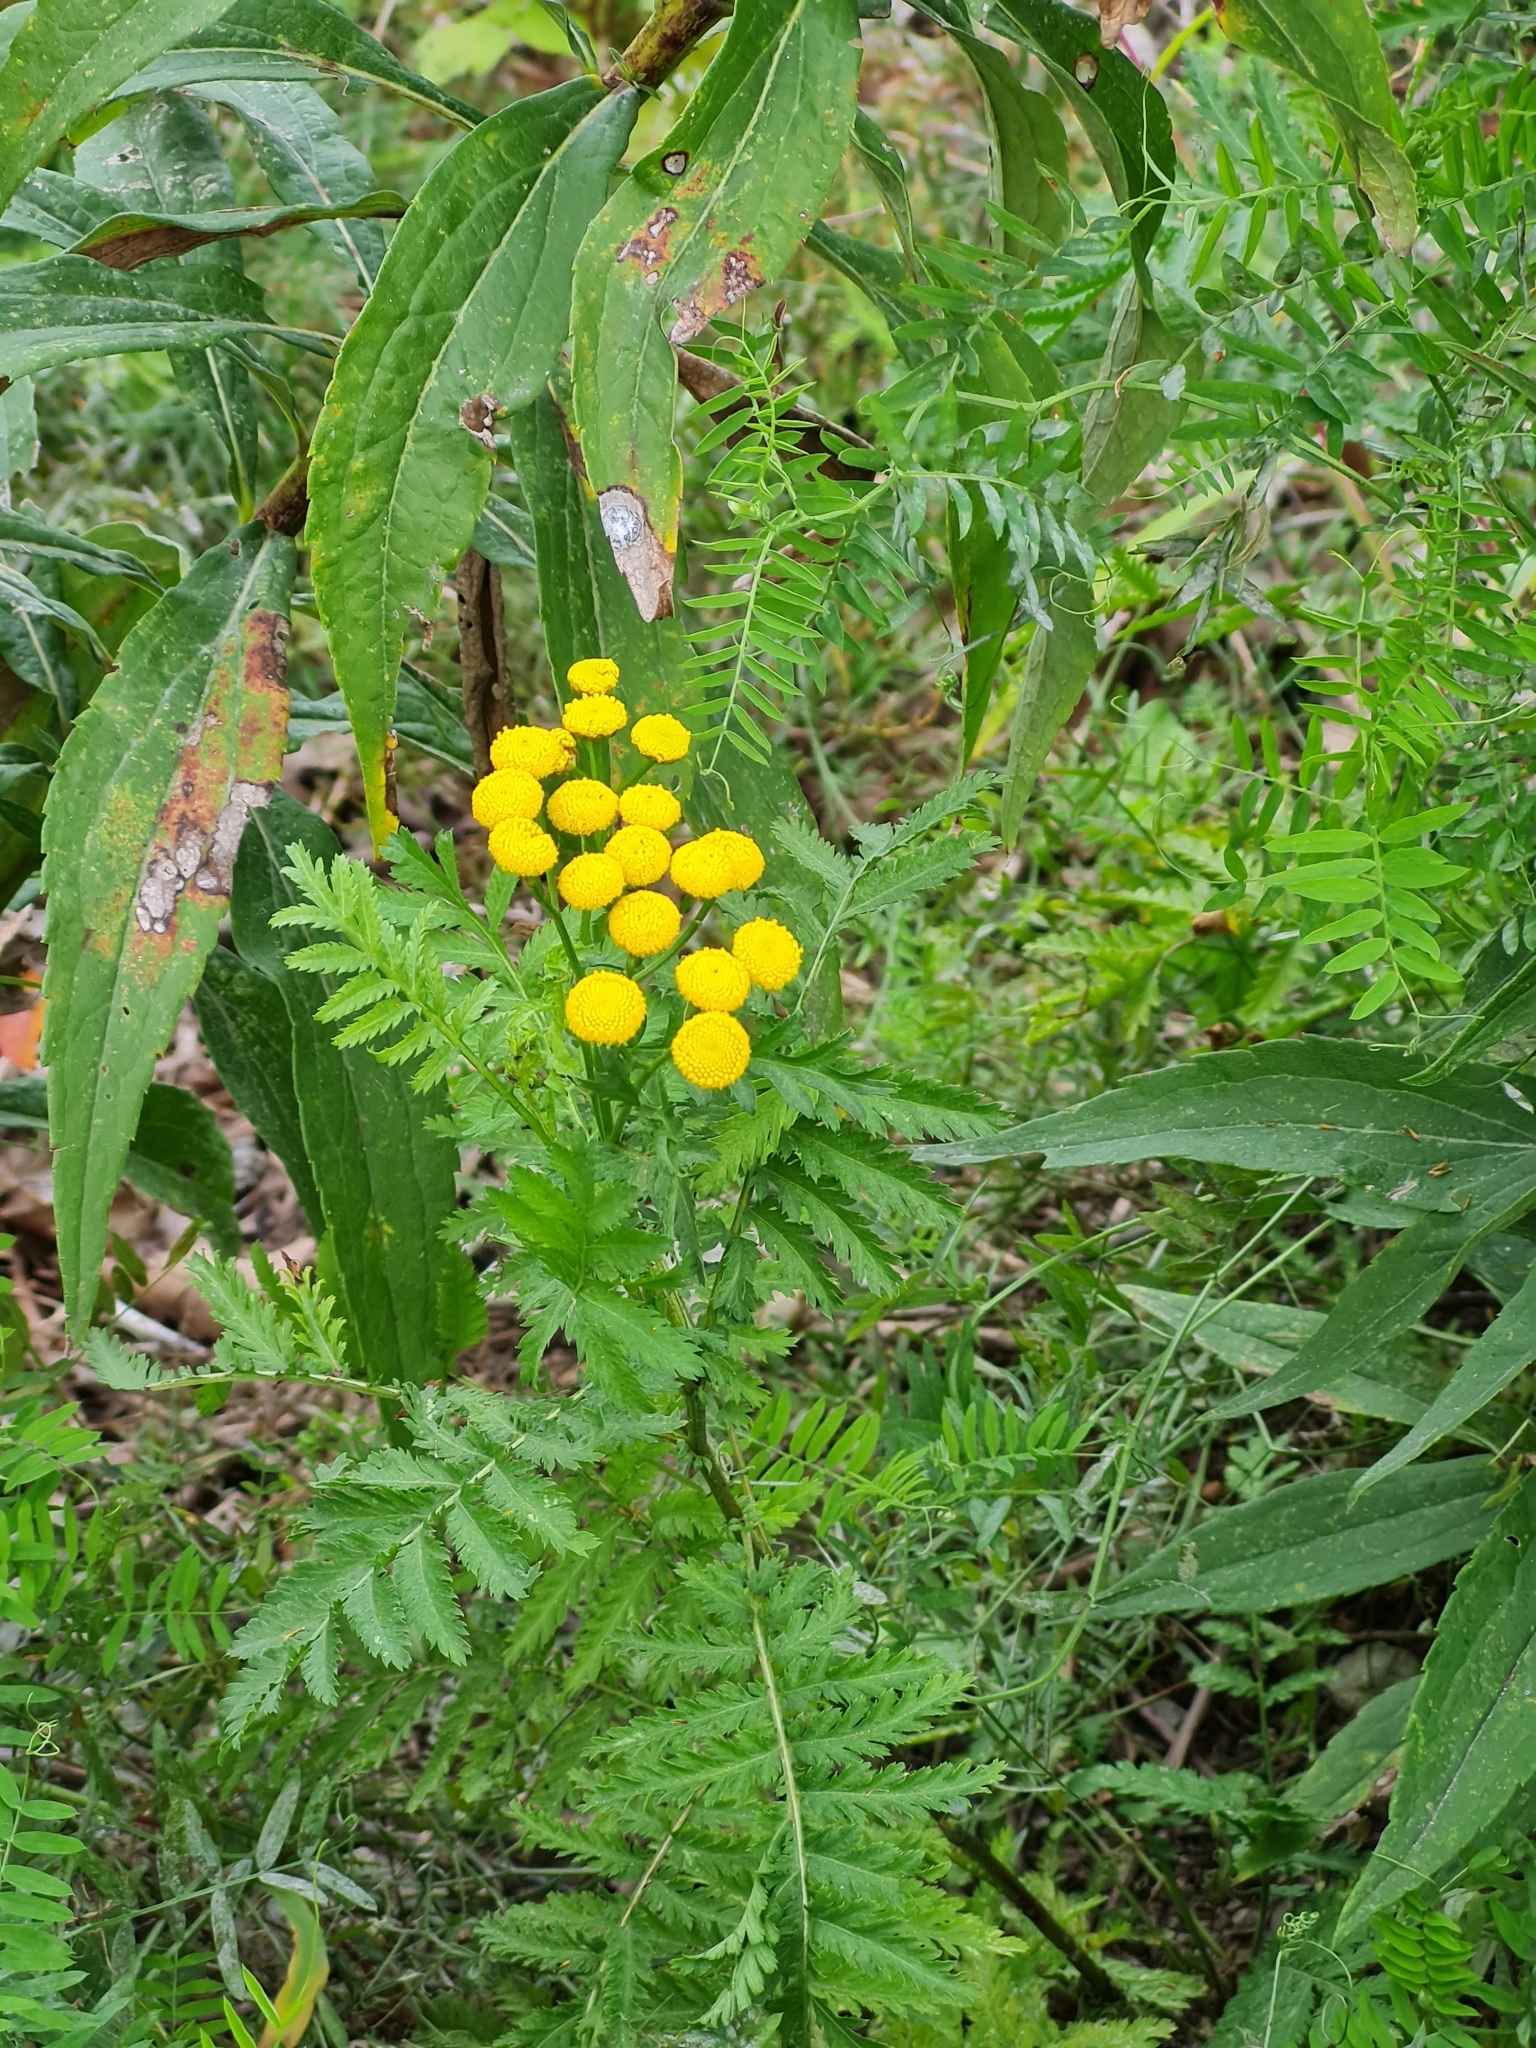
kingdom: Plantae
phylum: Tracheophyta
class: Magnoliopsida
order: Asterales
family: Asteraceae
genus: Tanacetum
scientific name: Tanacetum vulgare
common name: Common tansy
